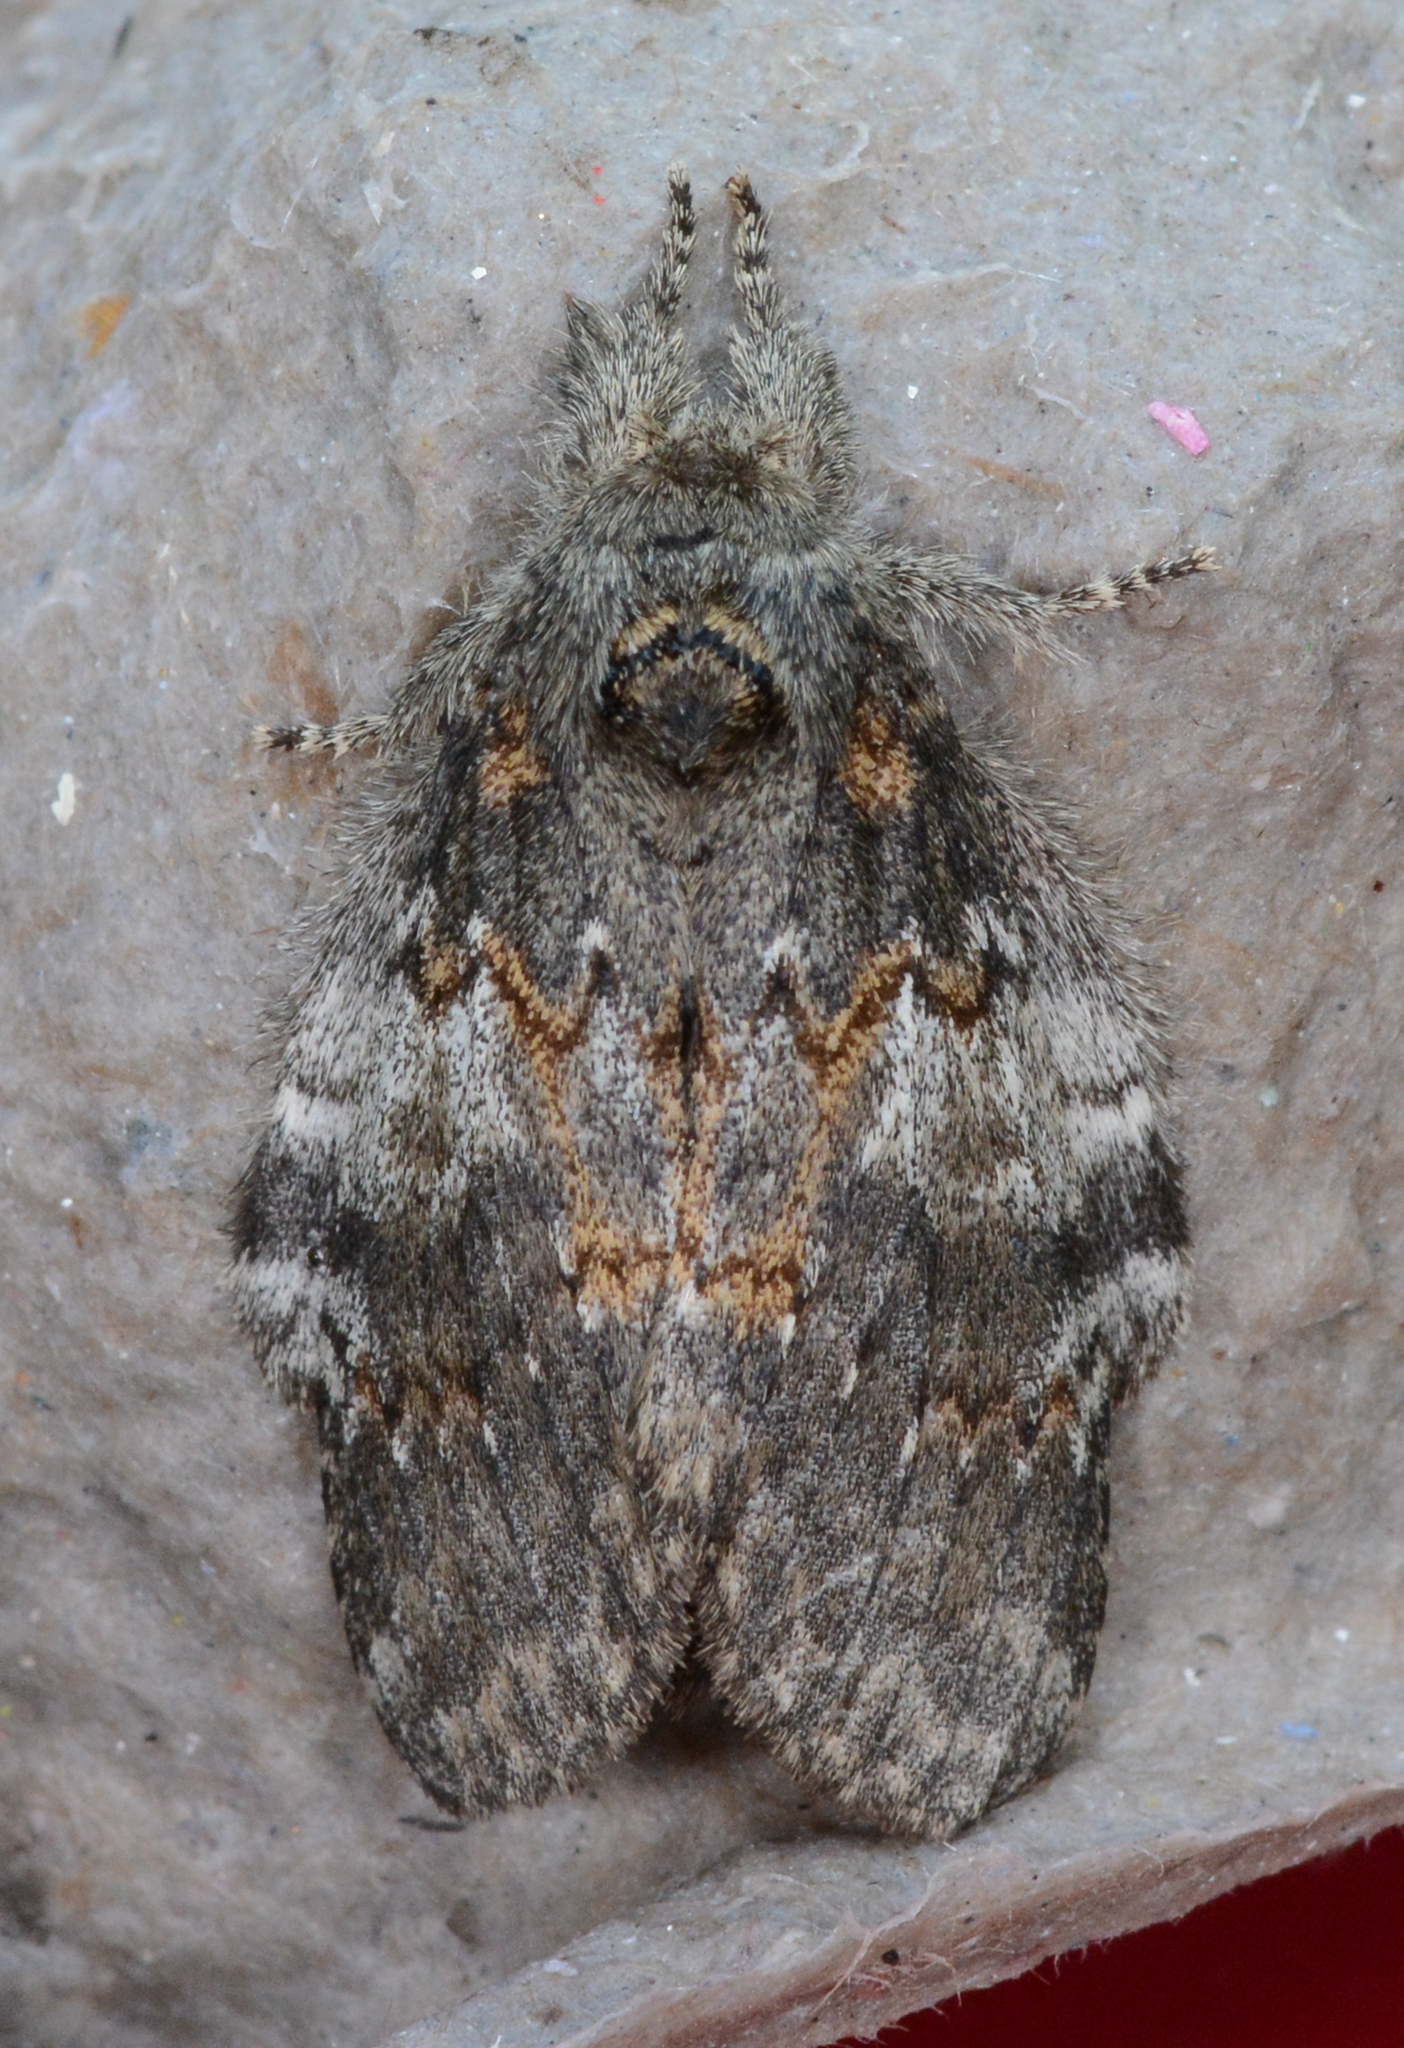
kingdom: Animalia
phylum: Arthropoda
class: Insecta
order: Lepidoptera
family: Notodontidae
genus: Peridea
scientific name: Peridea angulosa
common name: Angulose prominent
